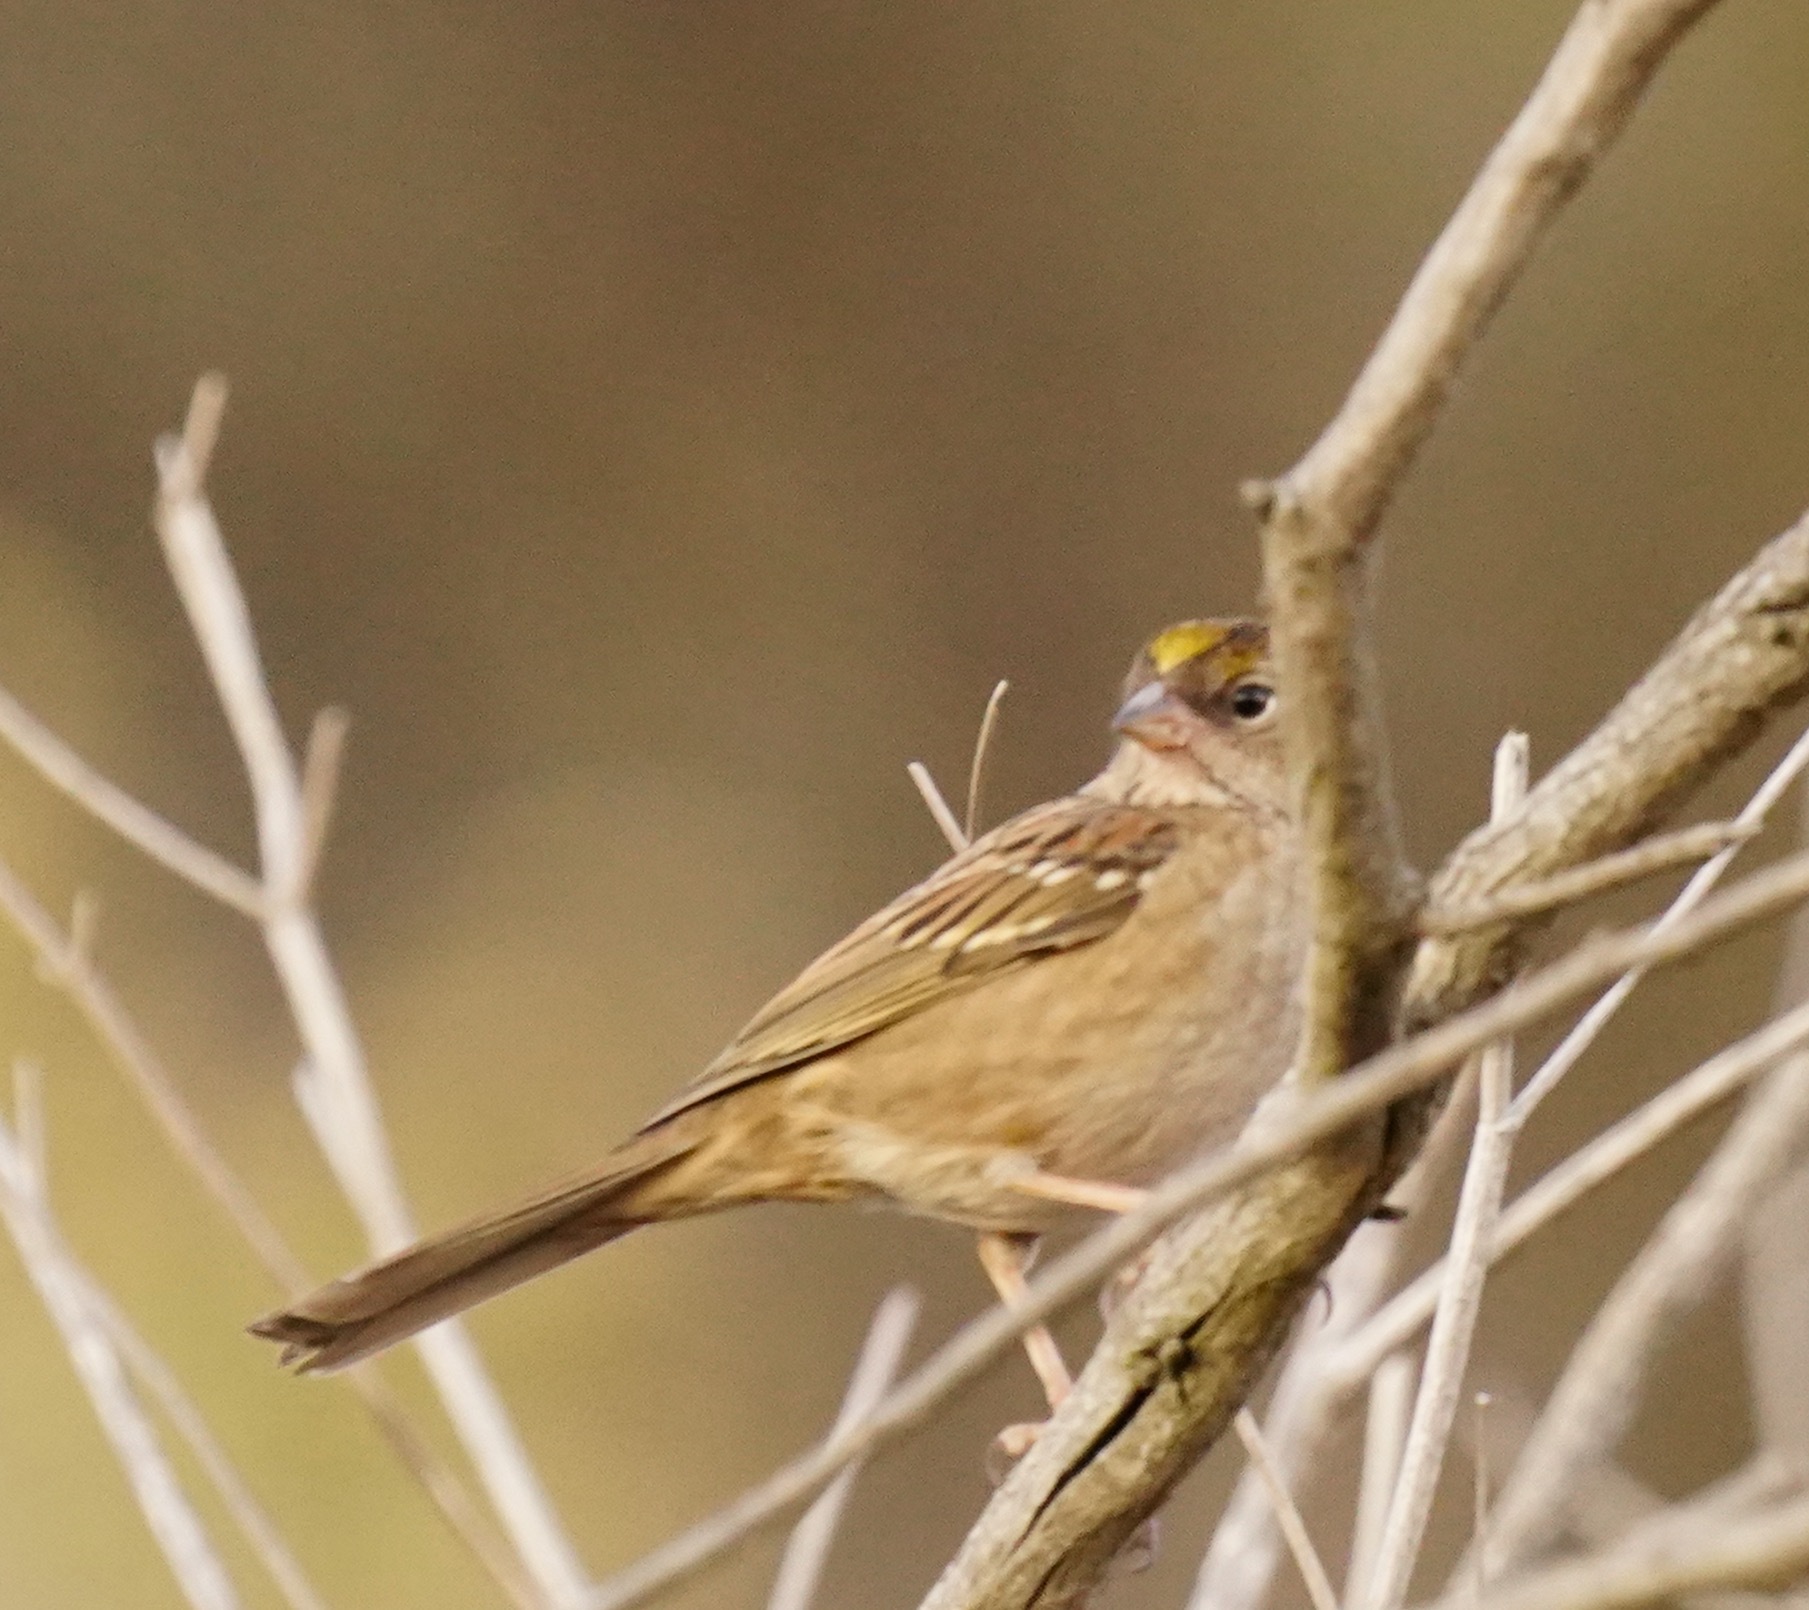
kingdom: Animalia
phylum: Chordata
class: Aves
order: Passeriformes
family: Passerellidae
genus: Zonotrichia
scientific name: Zonotrichia atricapilla
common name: Golden-crowned sparrow
